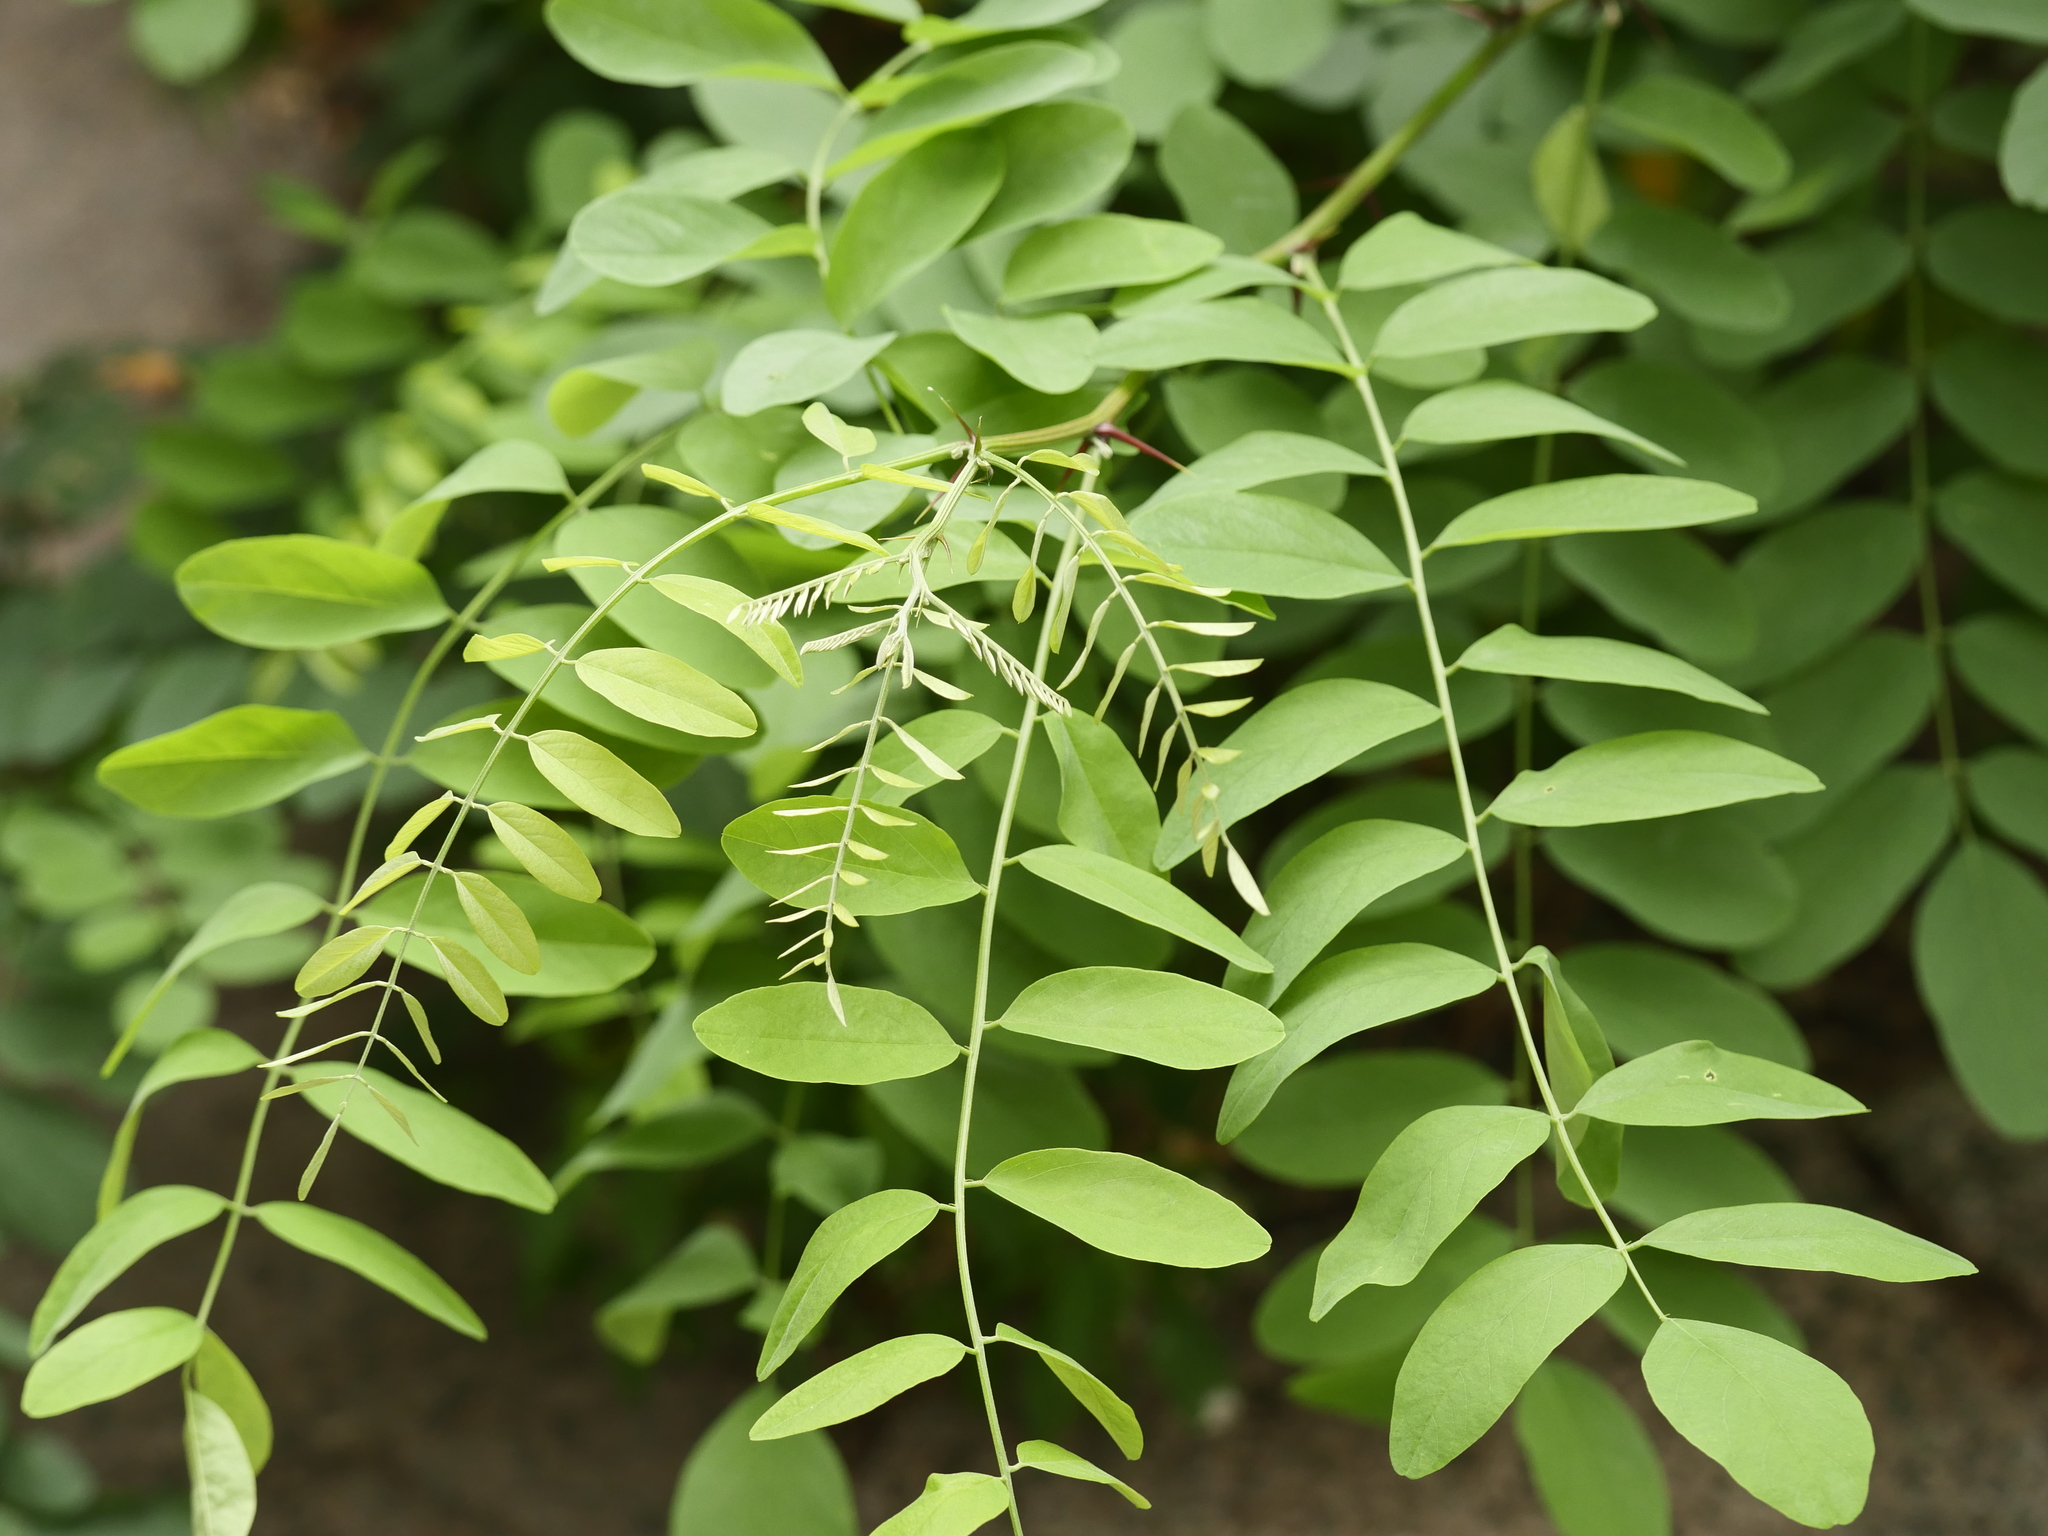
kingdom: Plantae
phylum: Tracheophyta
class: Magnoliopsida
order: Fabales
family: Fabaceae
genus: Robinia
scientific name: Robinia pseudoacacia
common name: Black locust
